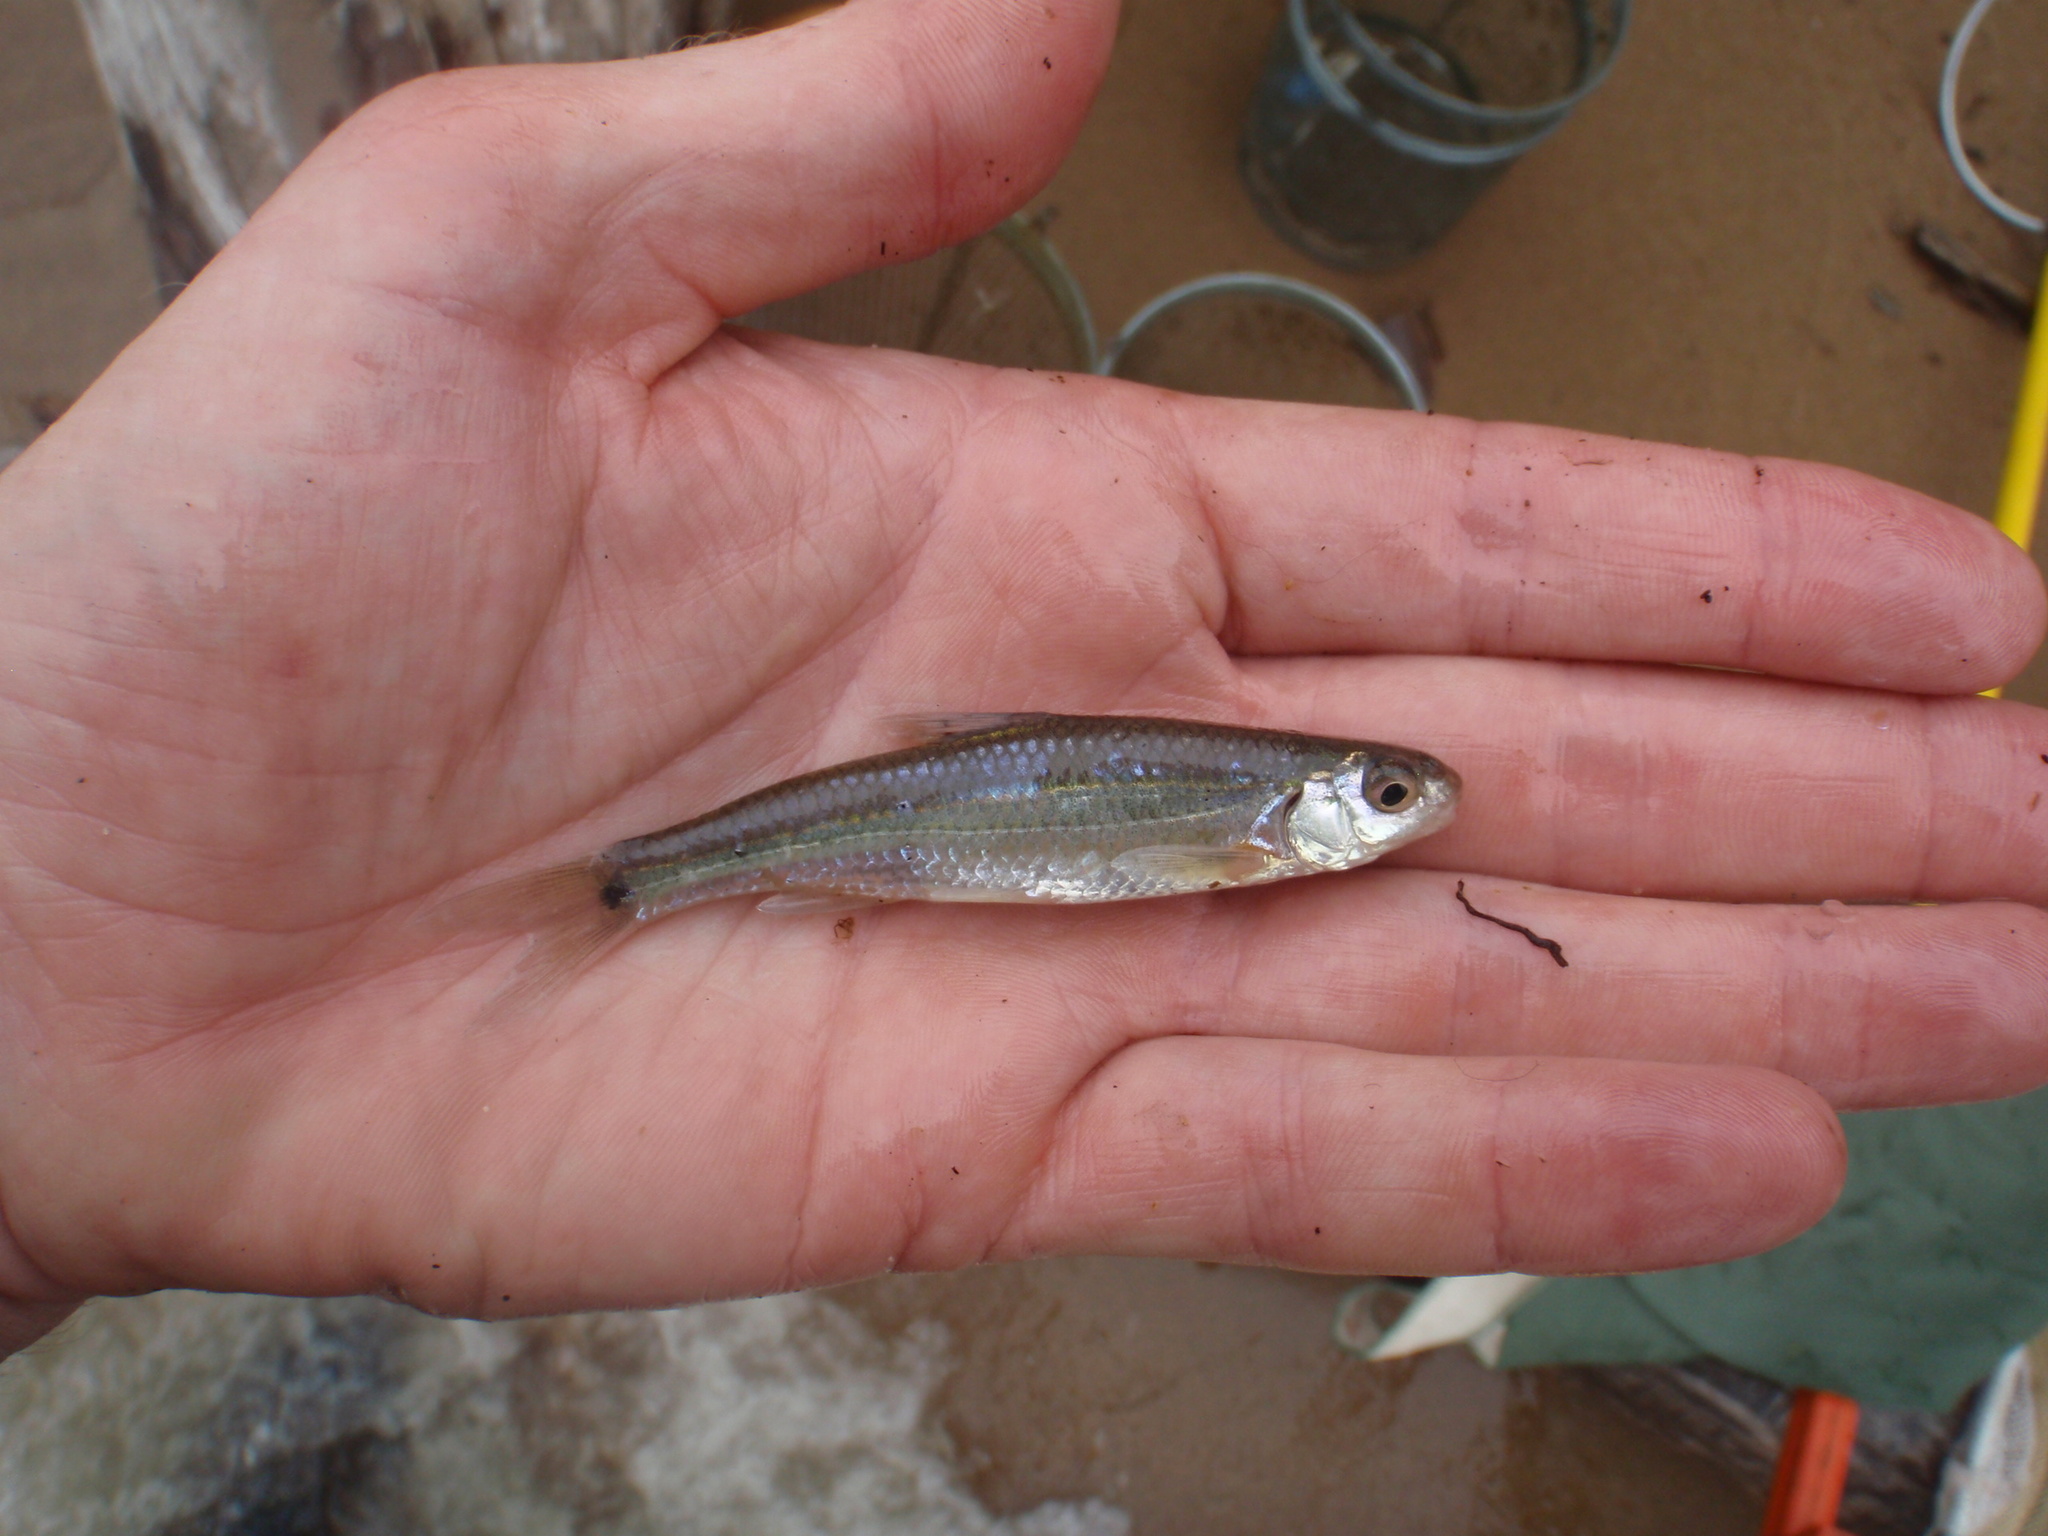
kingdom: Animalia
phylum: Chordata
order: Cypriniformes
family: Cyprinidae
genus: Notropis
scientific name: Notropis
